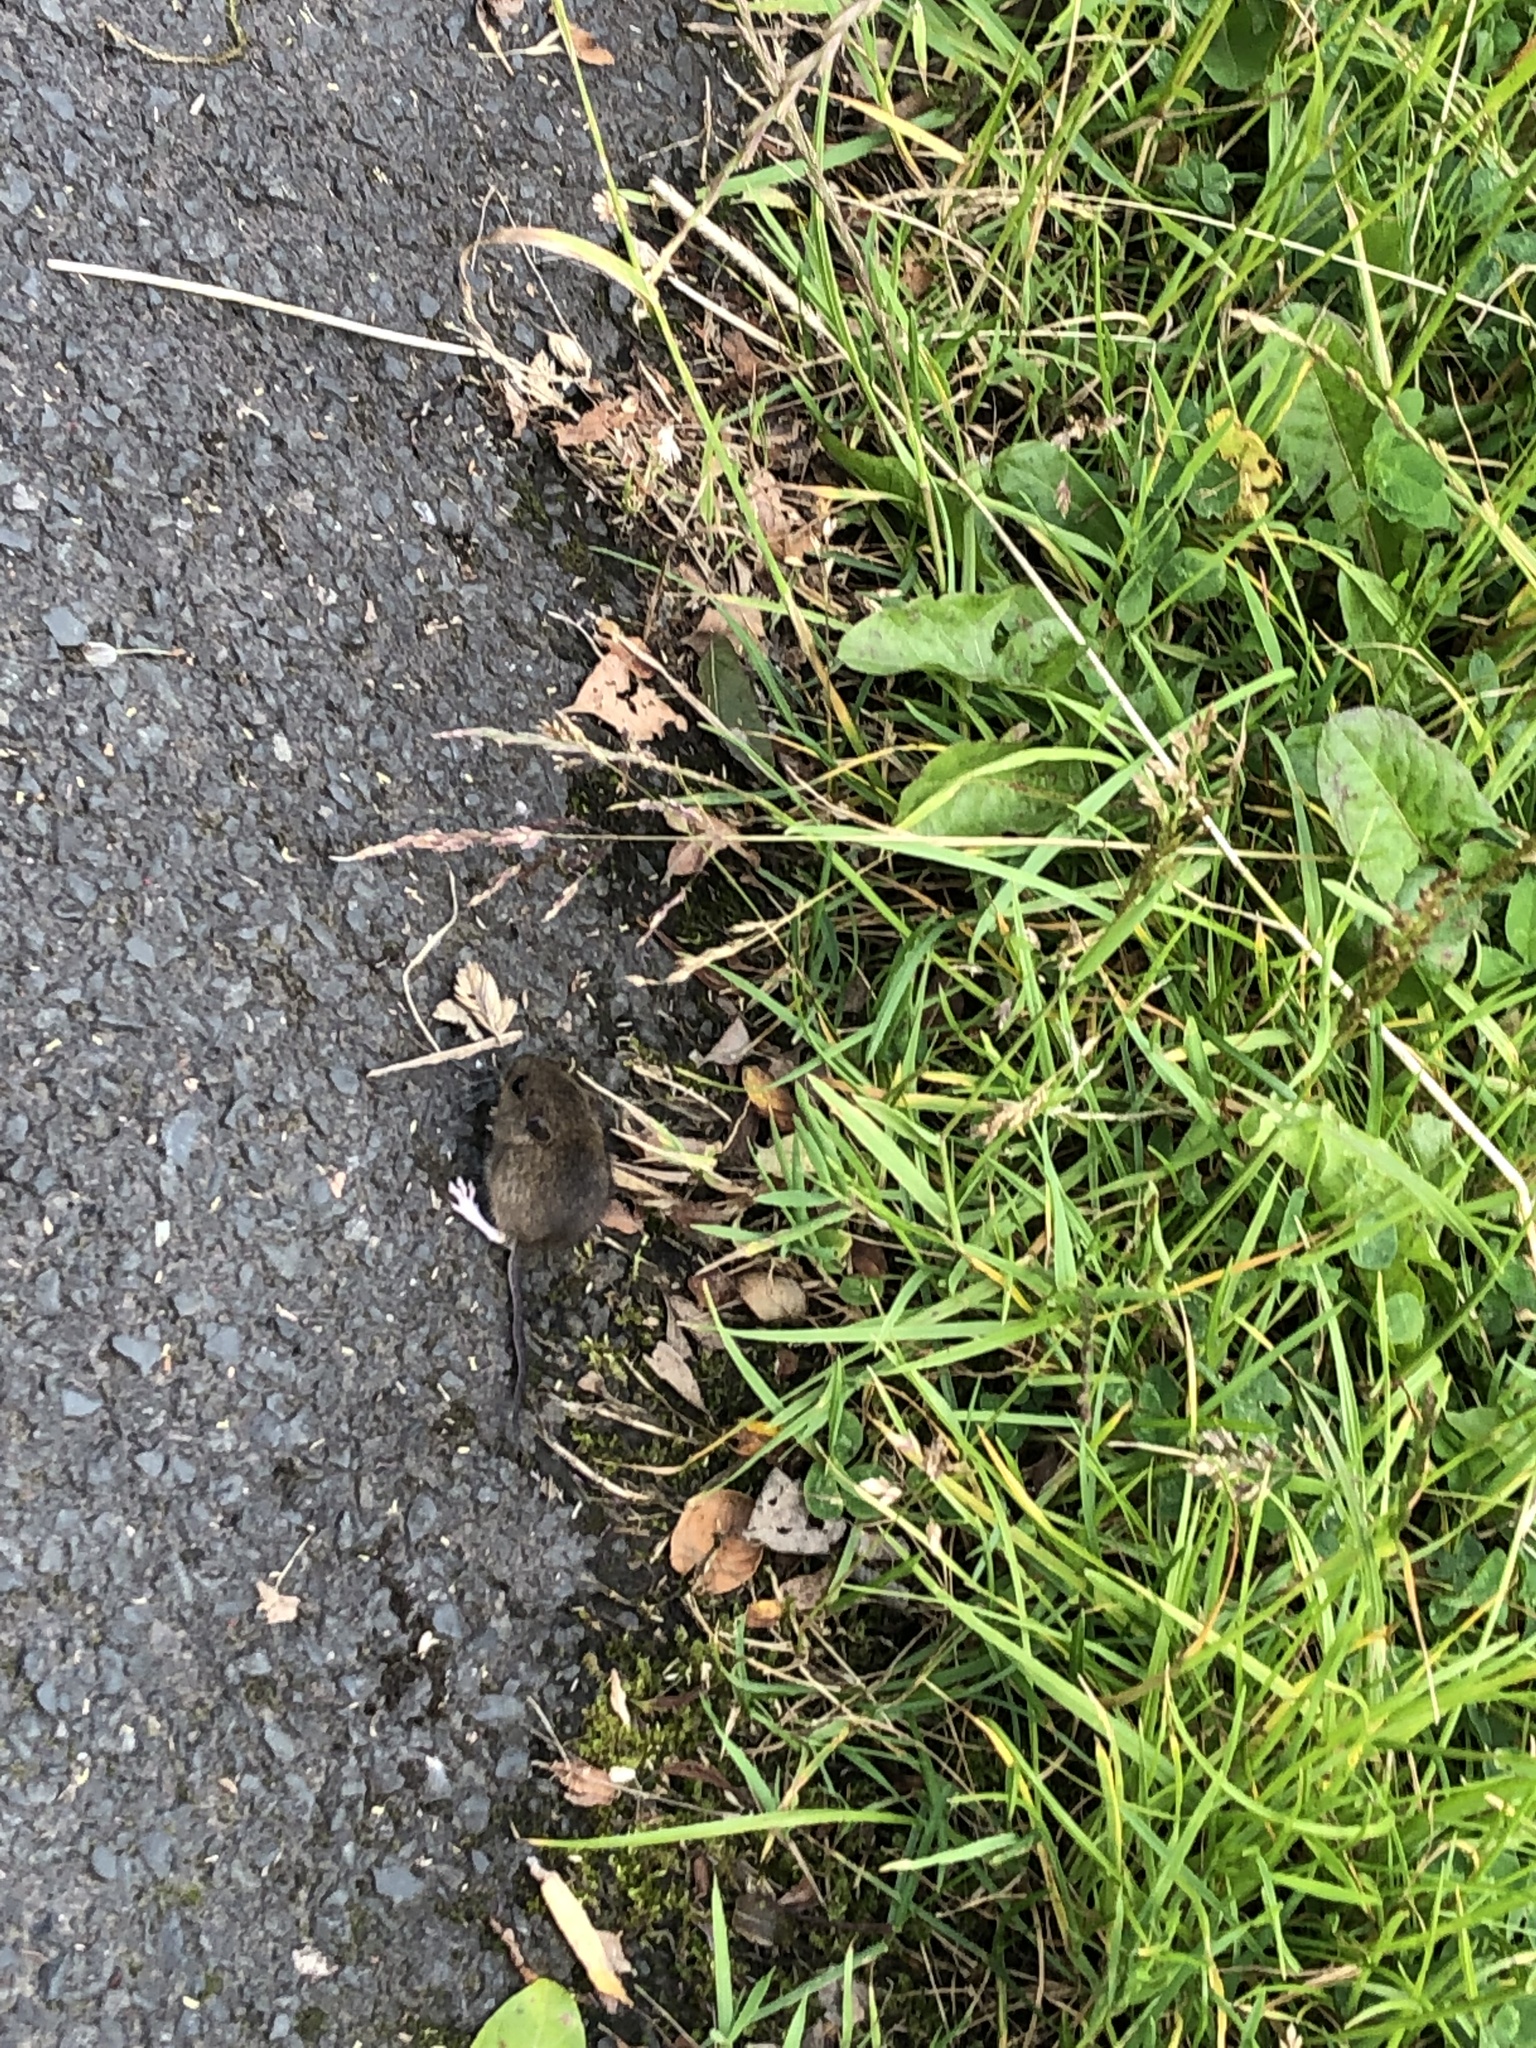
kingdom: Animalia
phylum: Chordata
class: Mammalia
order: Rodentia
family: Muridae
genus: Apodemus
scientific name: Apodemus sylvaticus
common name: Wood mouse
